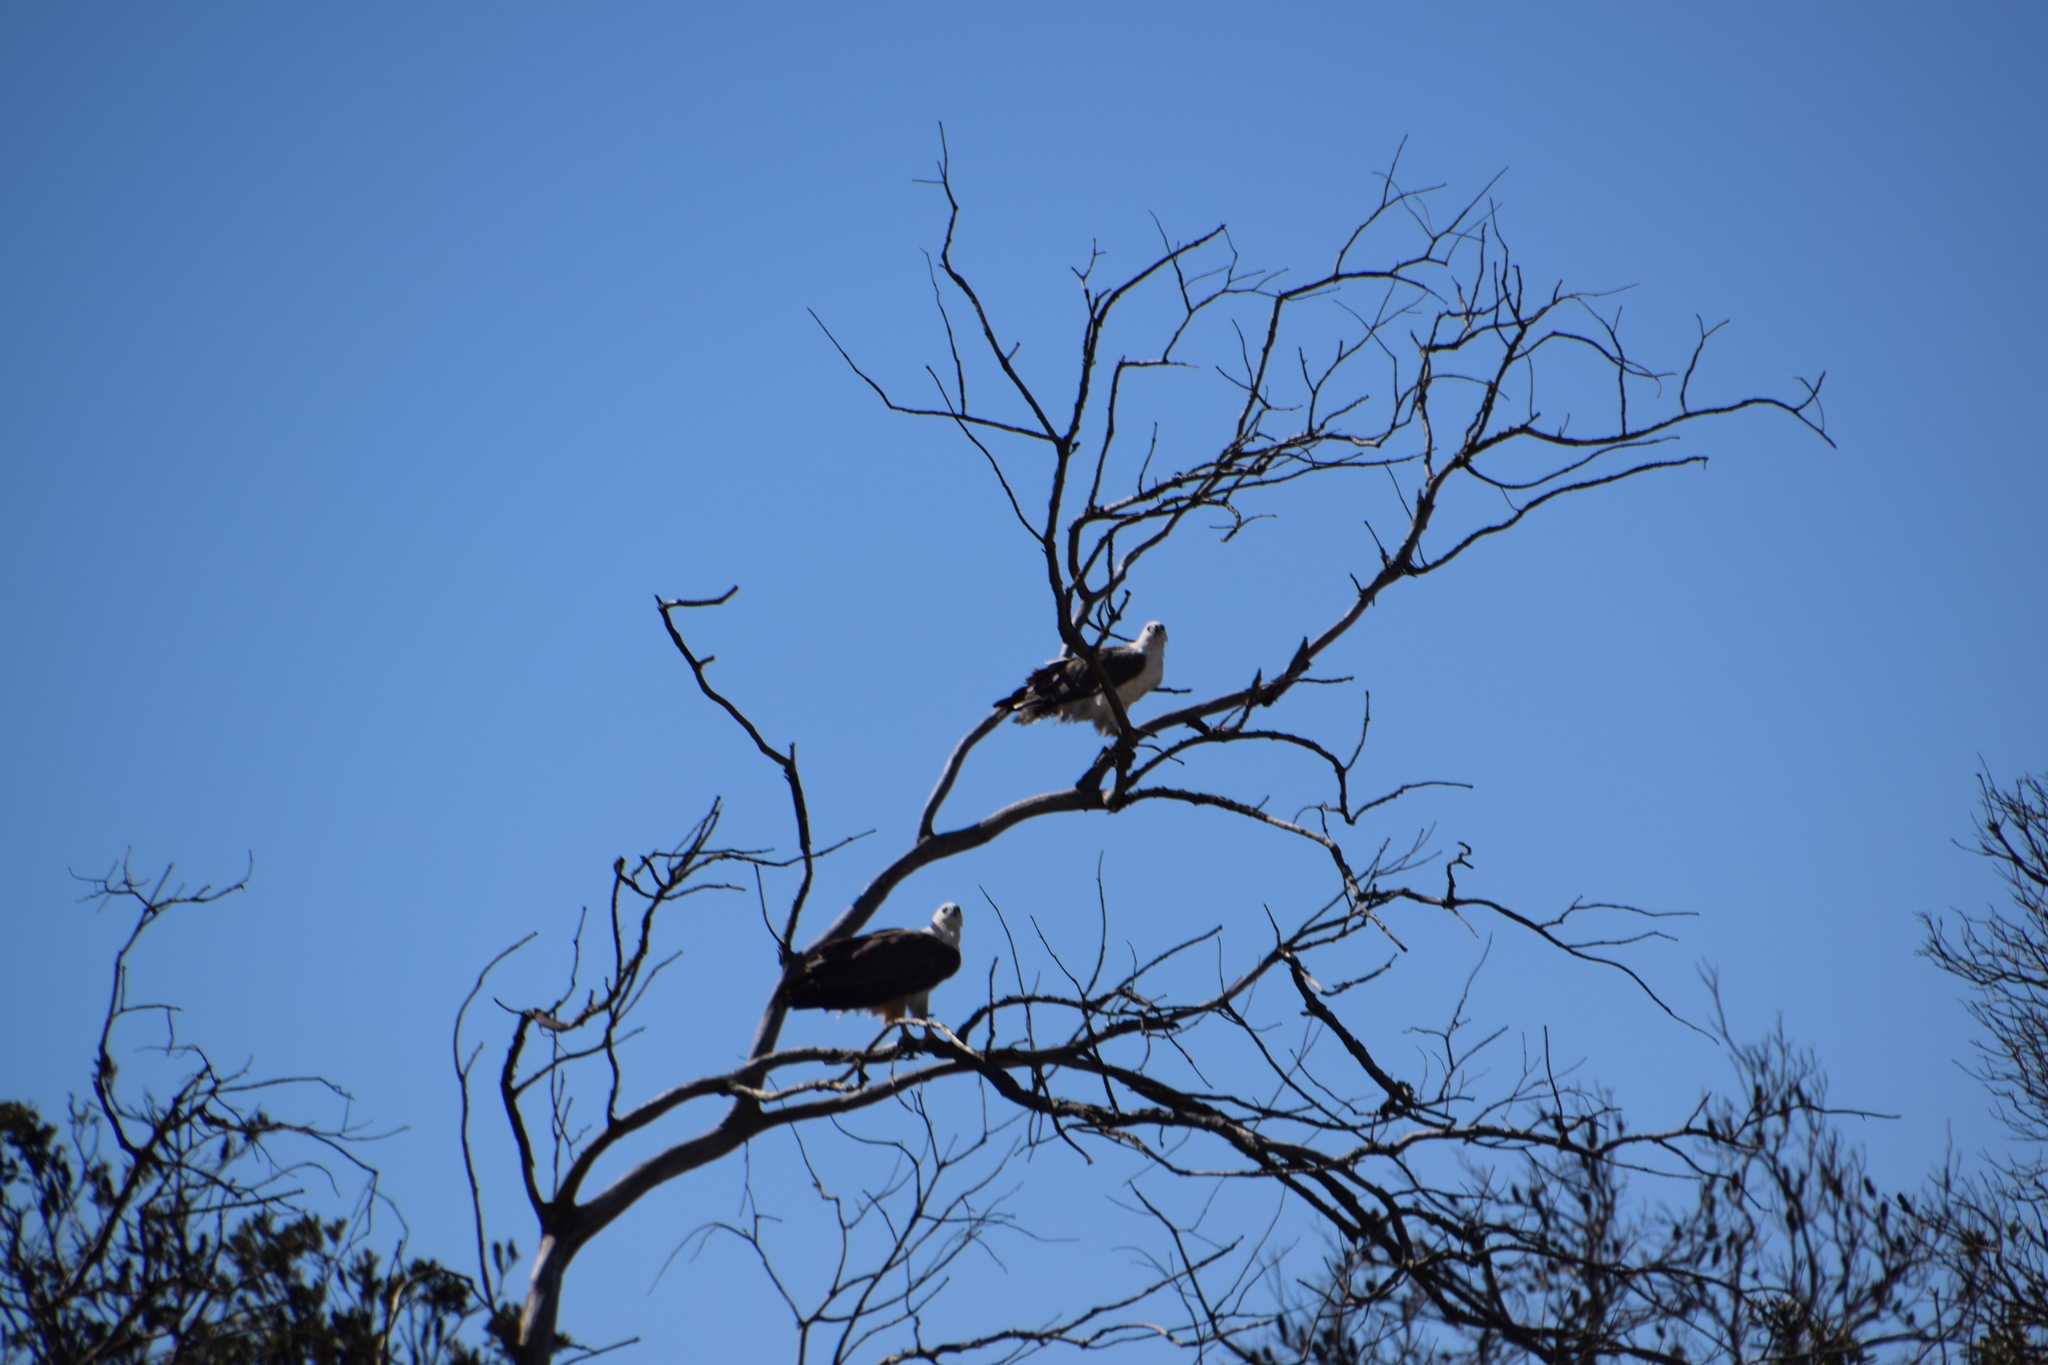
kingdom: Animalia
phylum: Chordata
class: Aves
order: Accipitriformes
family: Accipitridae
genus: Haliaeetus
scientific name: Haliaeetus leucogaster
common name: White-bellied sea eagle
